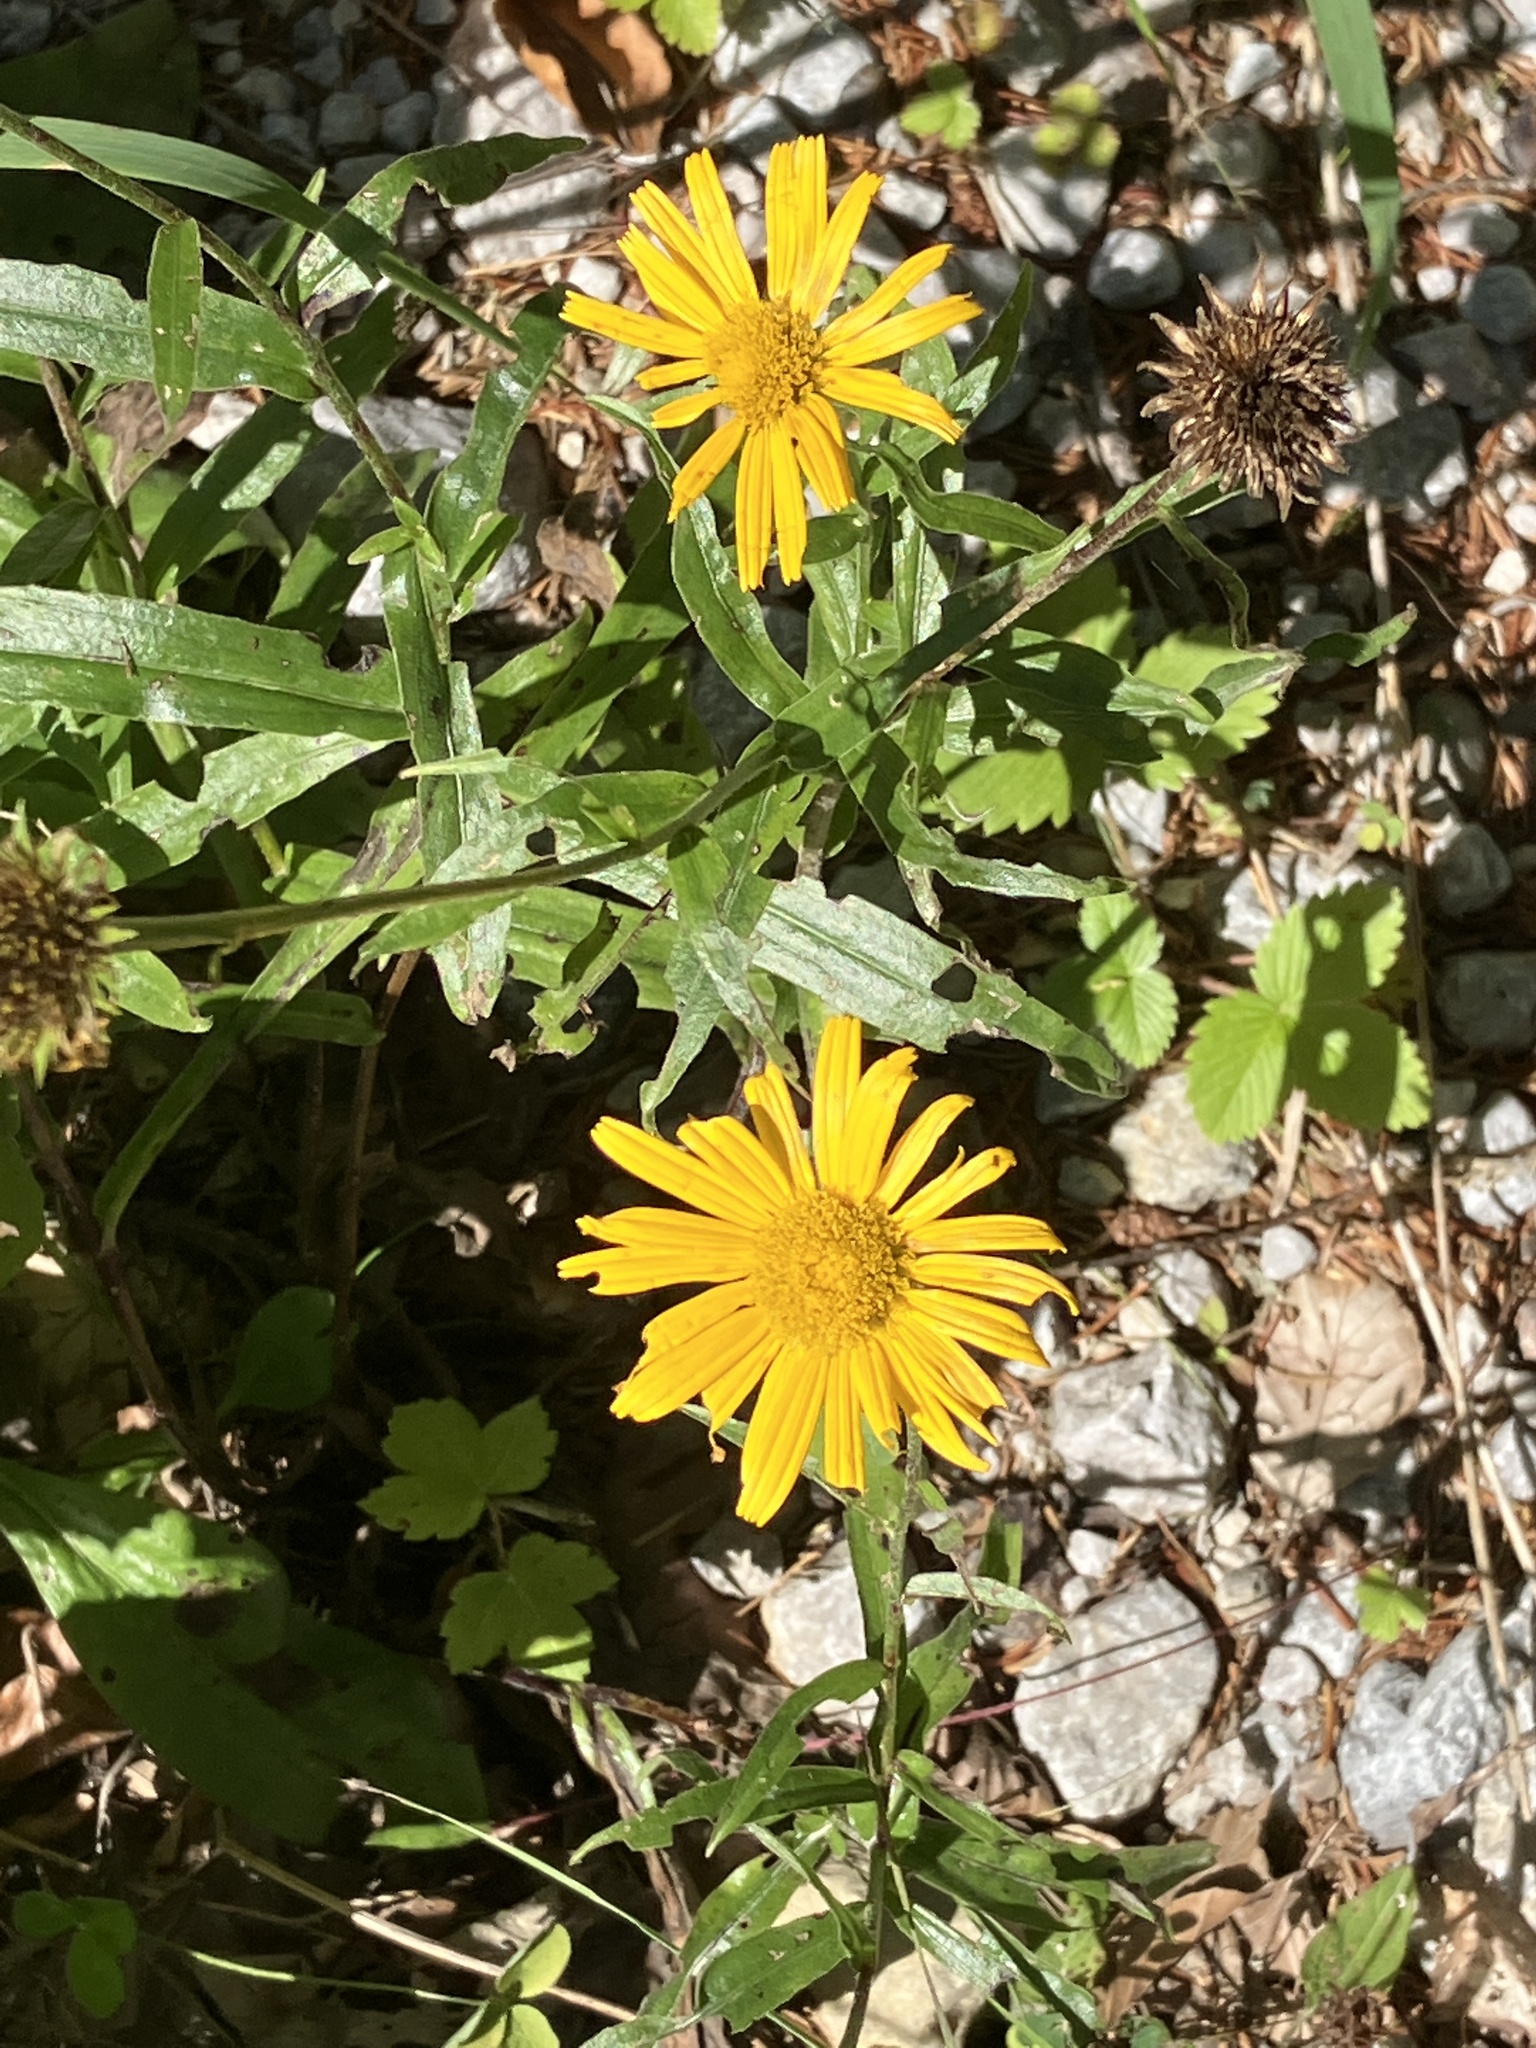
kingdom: Plantae
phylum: Tracheophyta
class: Magnoliopsida
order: Asterales
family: Asteraceae
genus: Buphthalmum
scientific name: Buphthalmum salicifolium
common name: Willow-leaved yellow-oxeye
